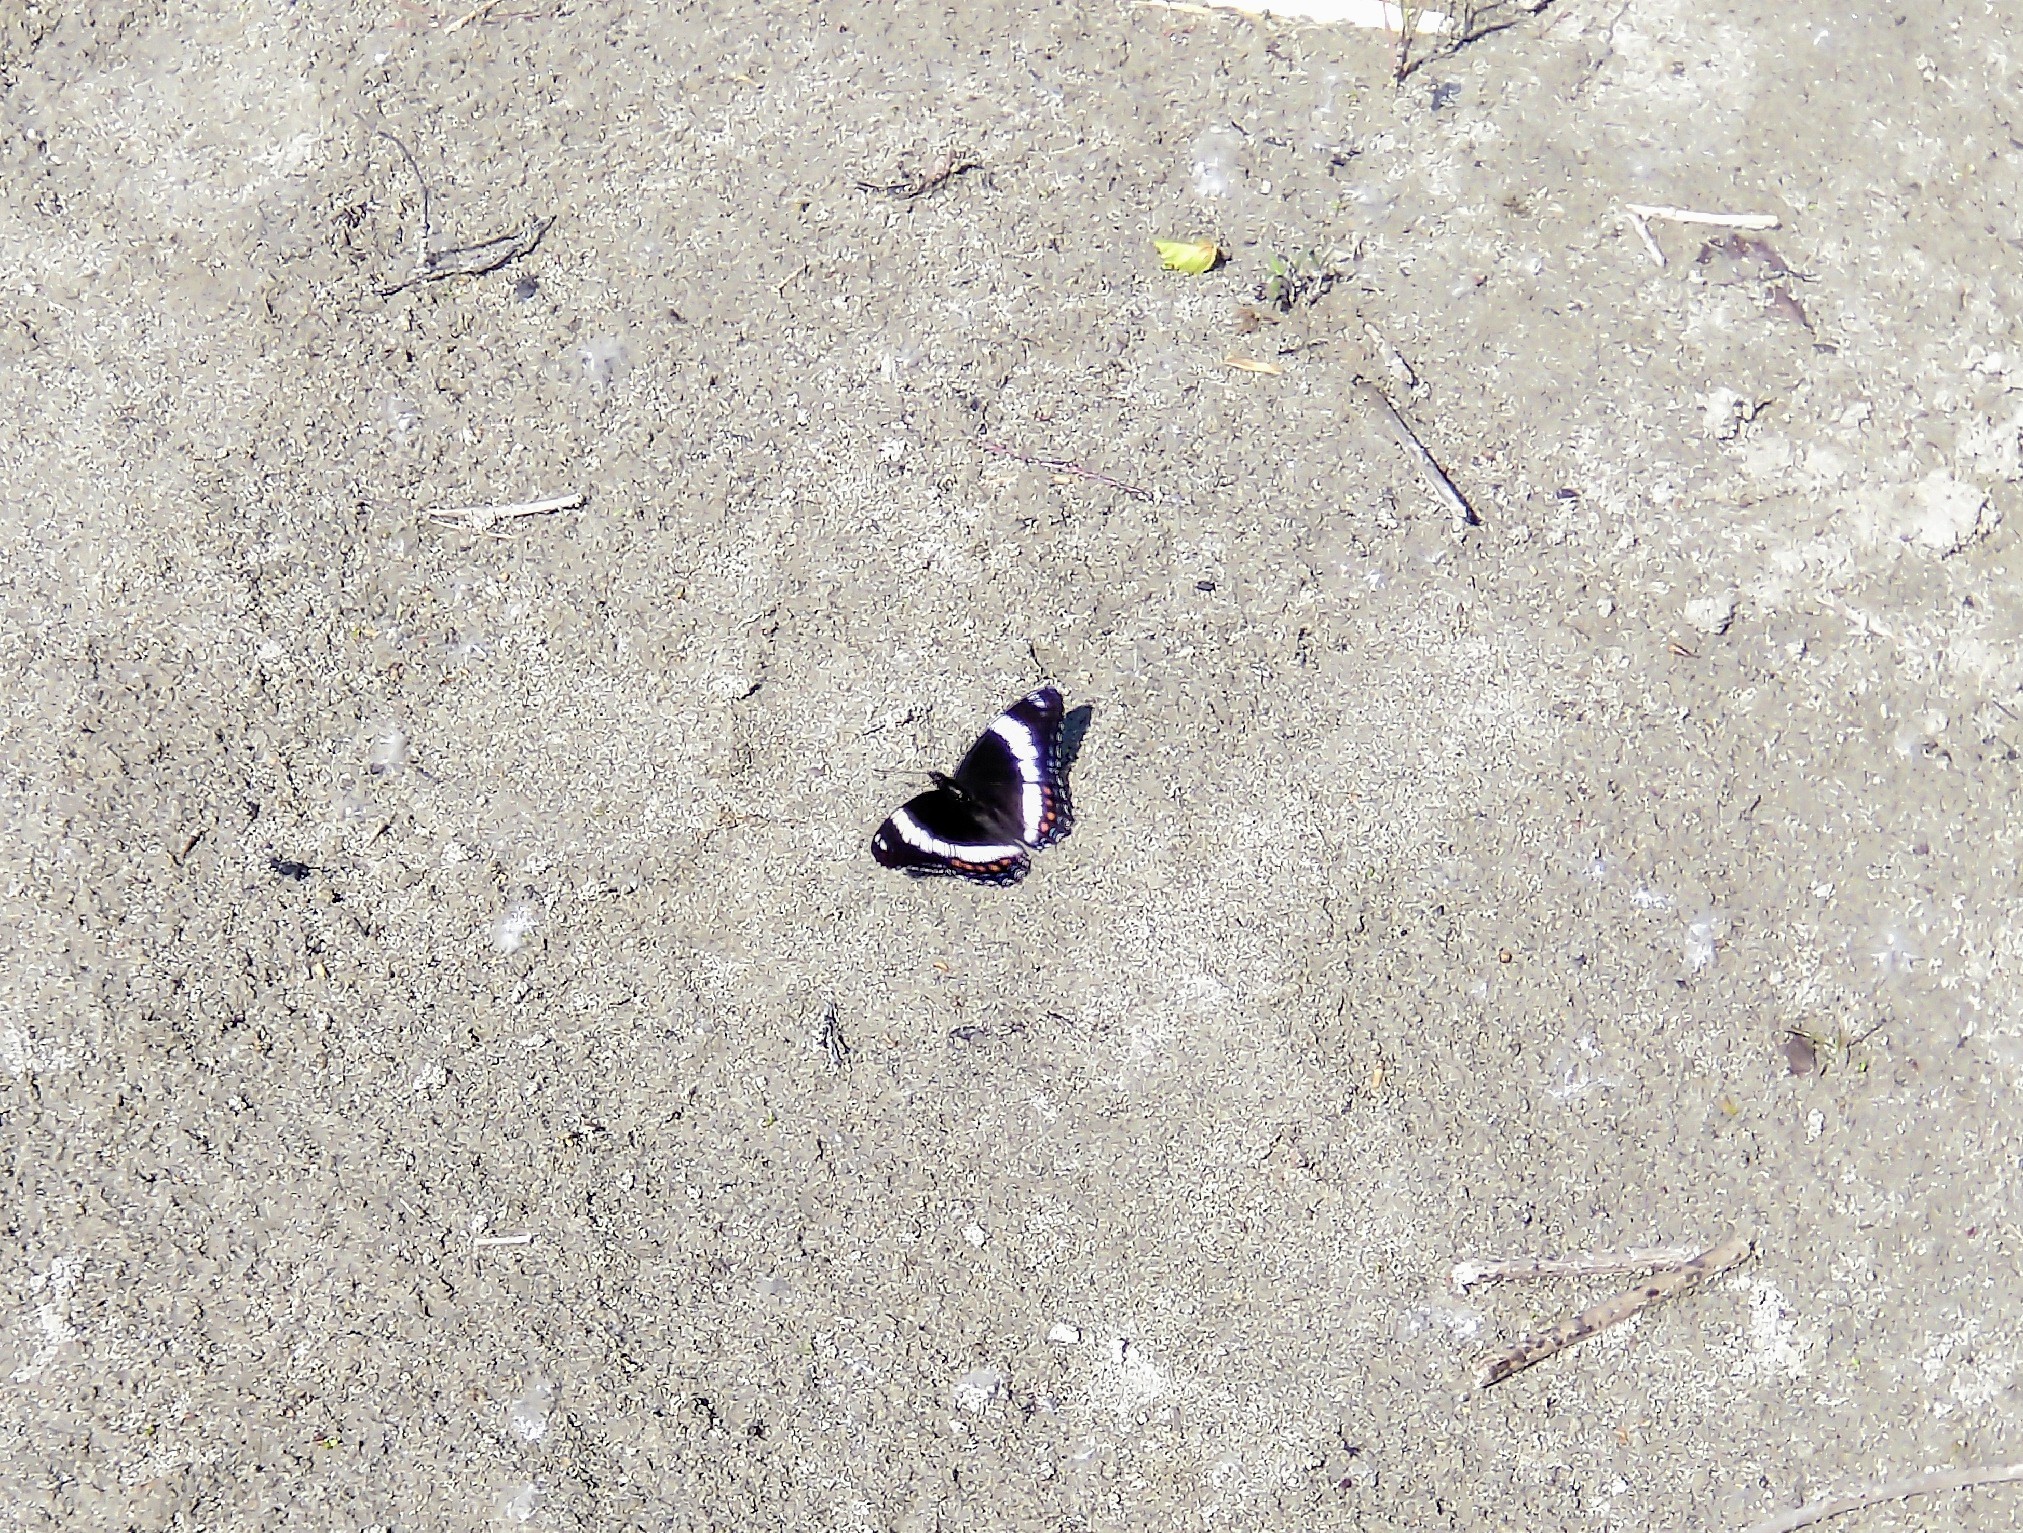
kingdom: Animalia
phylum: Arthropoda
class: Insecta
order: Lepidoptera
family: Nymphalidae
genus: Limenitis
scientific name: Limenitis arthemis
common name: Red-spotted admiral
